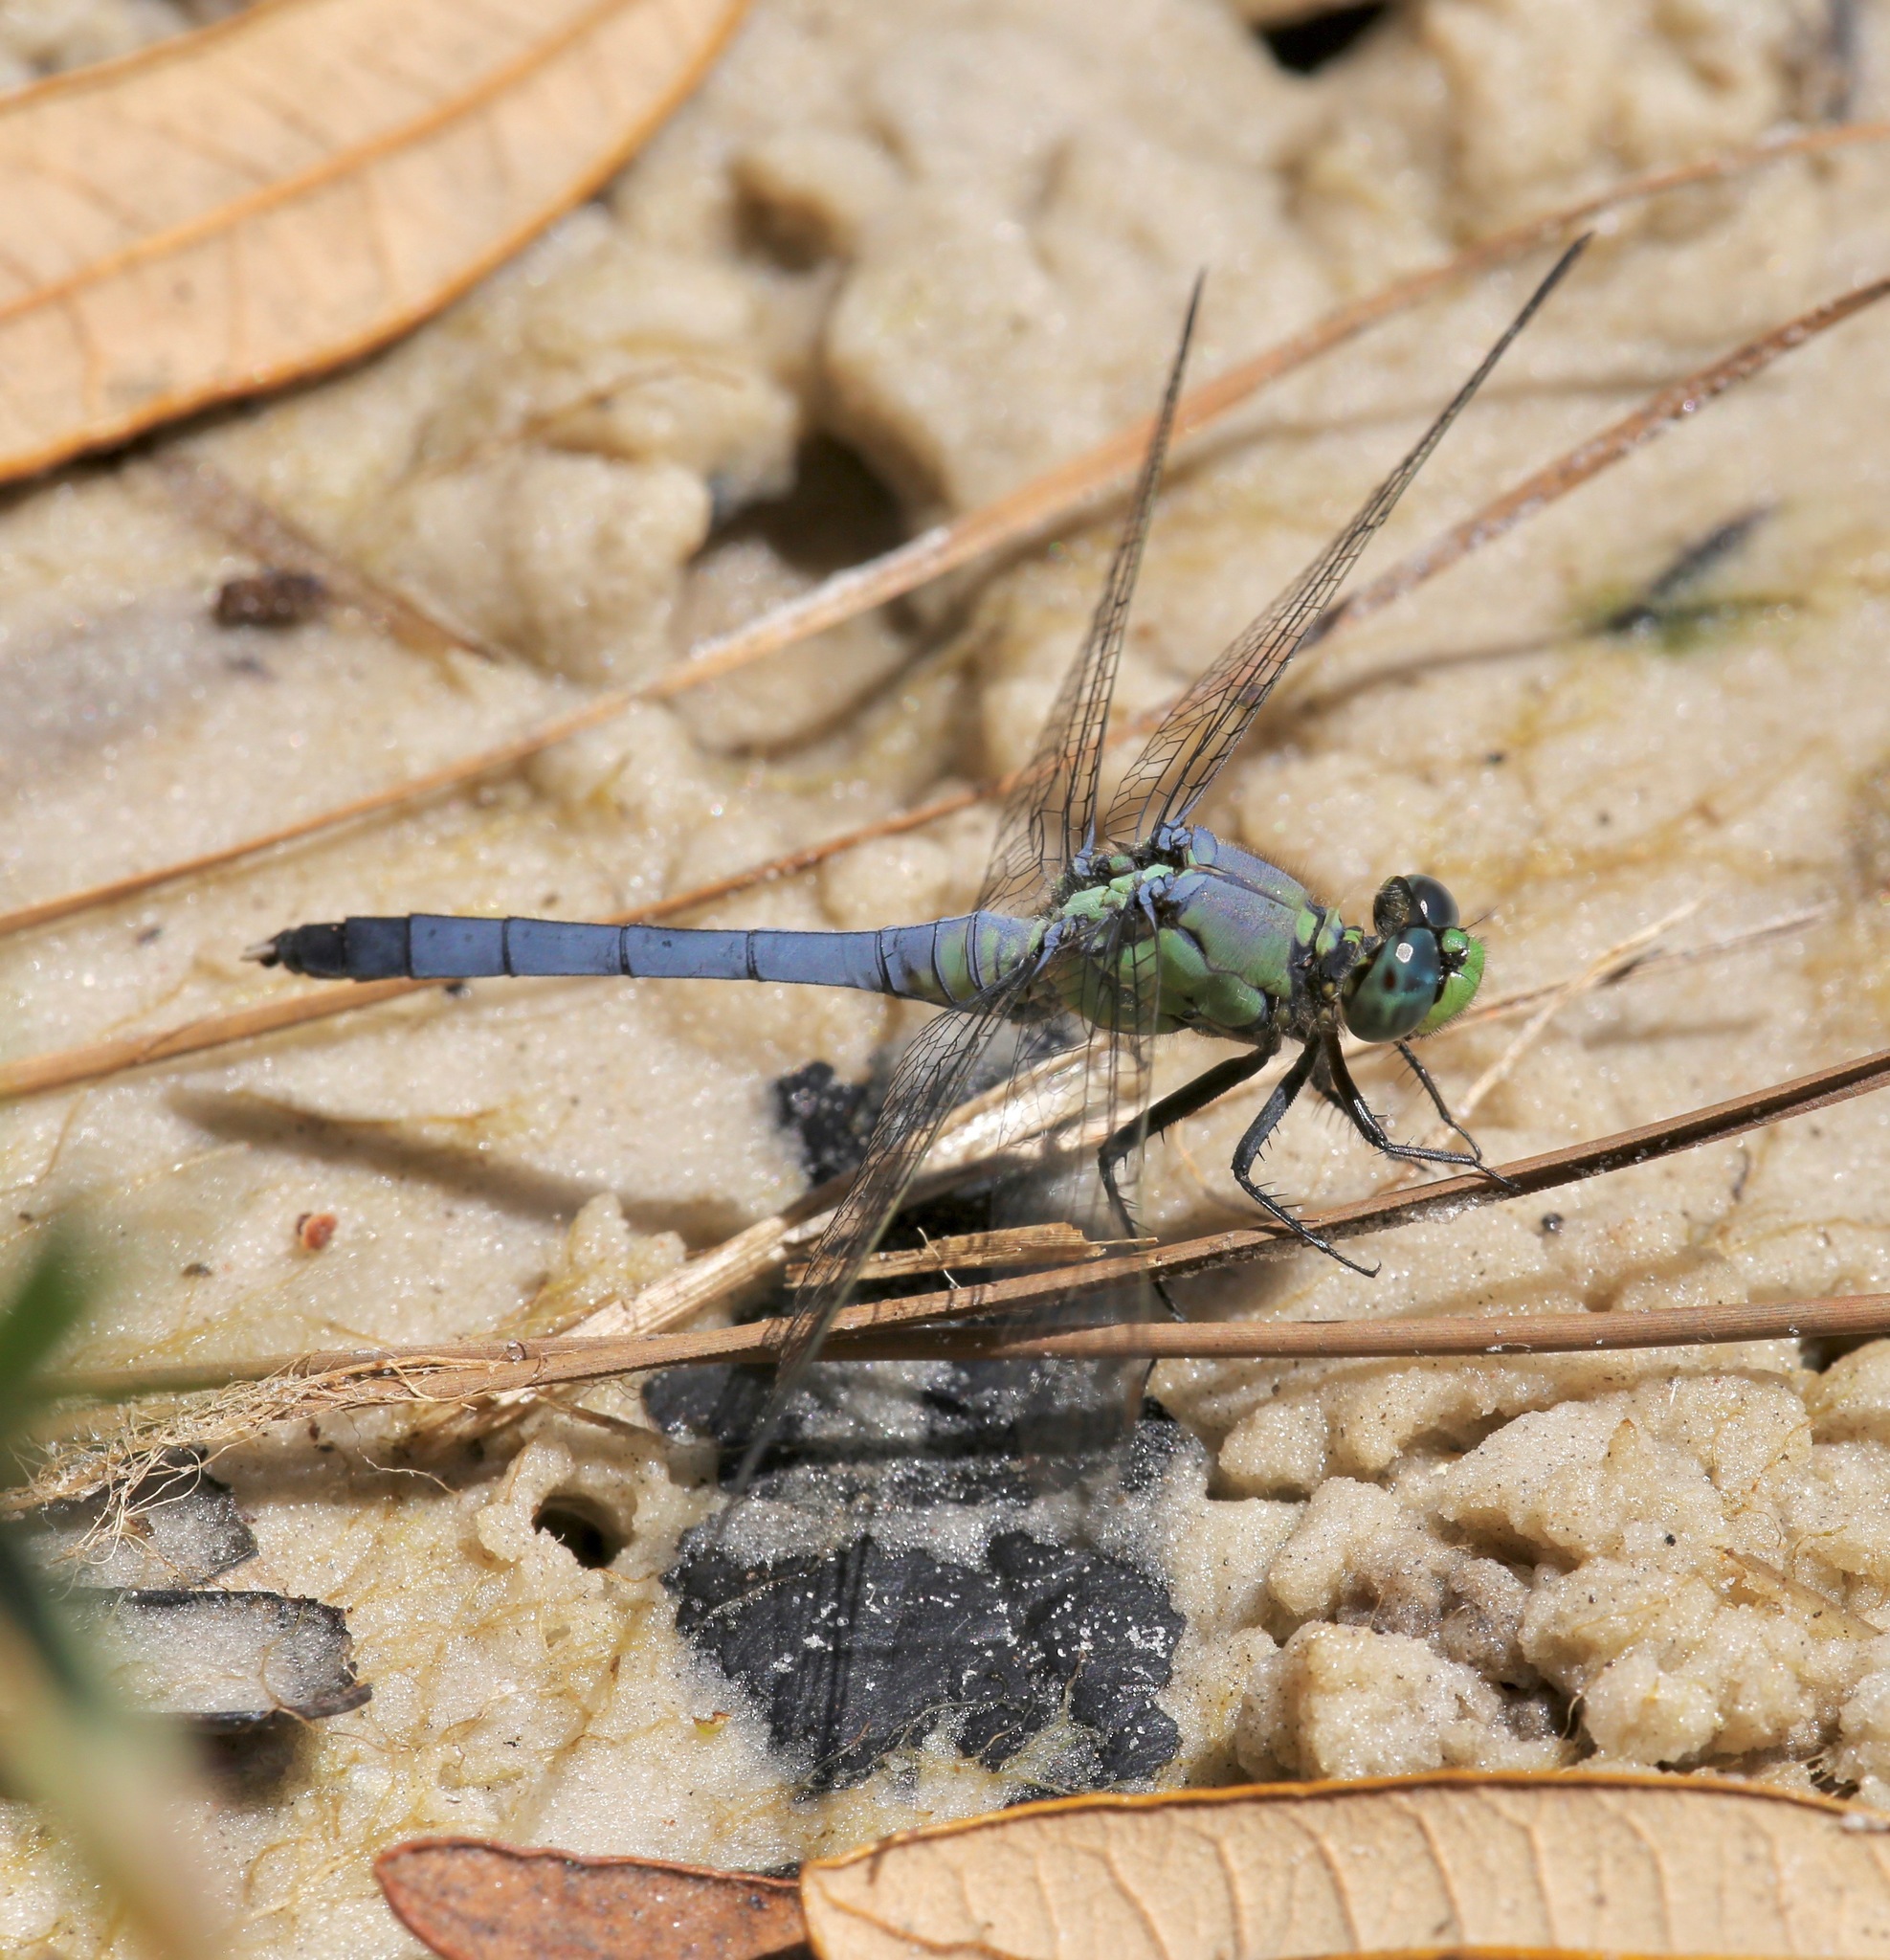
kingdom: Animalia
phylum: Arthropoda
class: Insecta
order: Odonata
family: Libellulidae
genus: Erythemis
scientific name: Erythemis simplicicollis
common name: Eastern pondhawk
